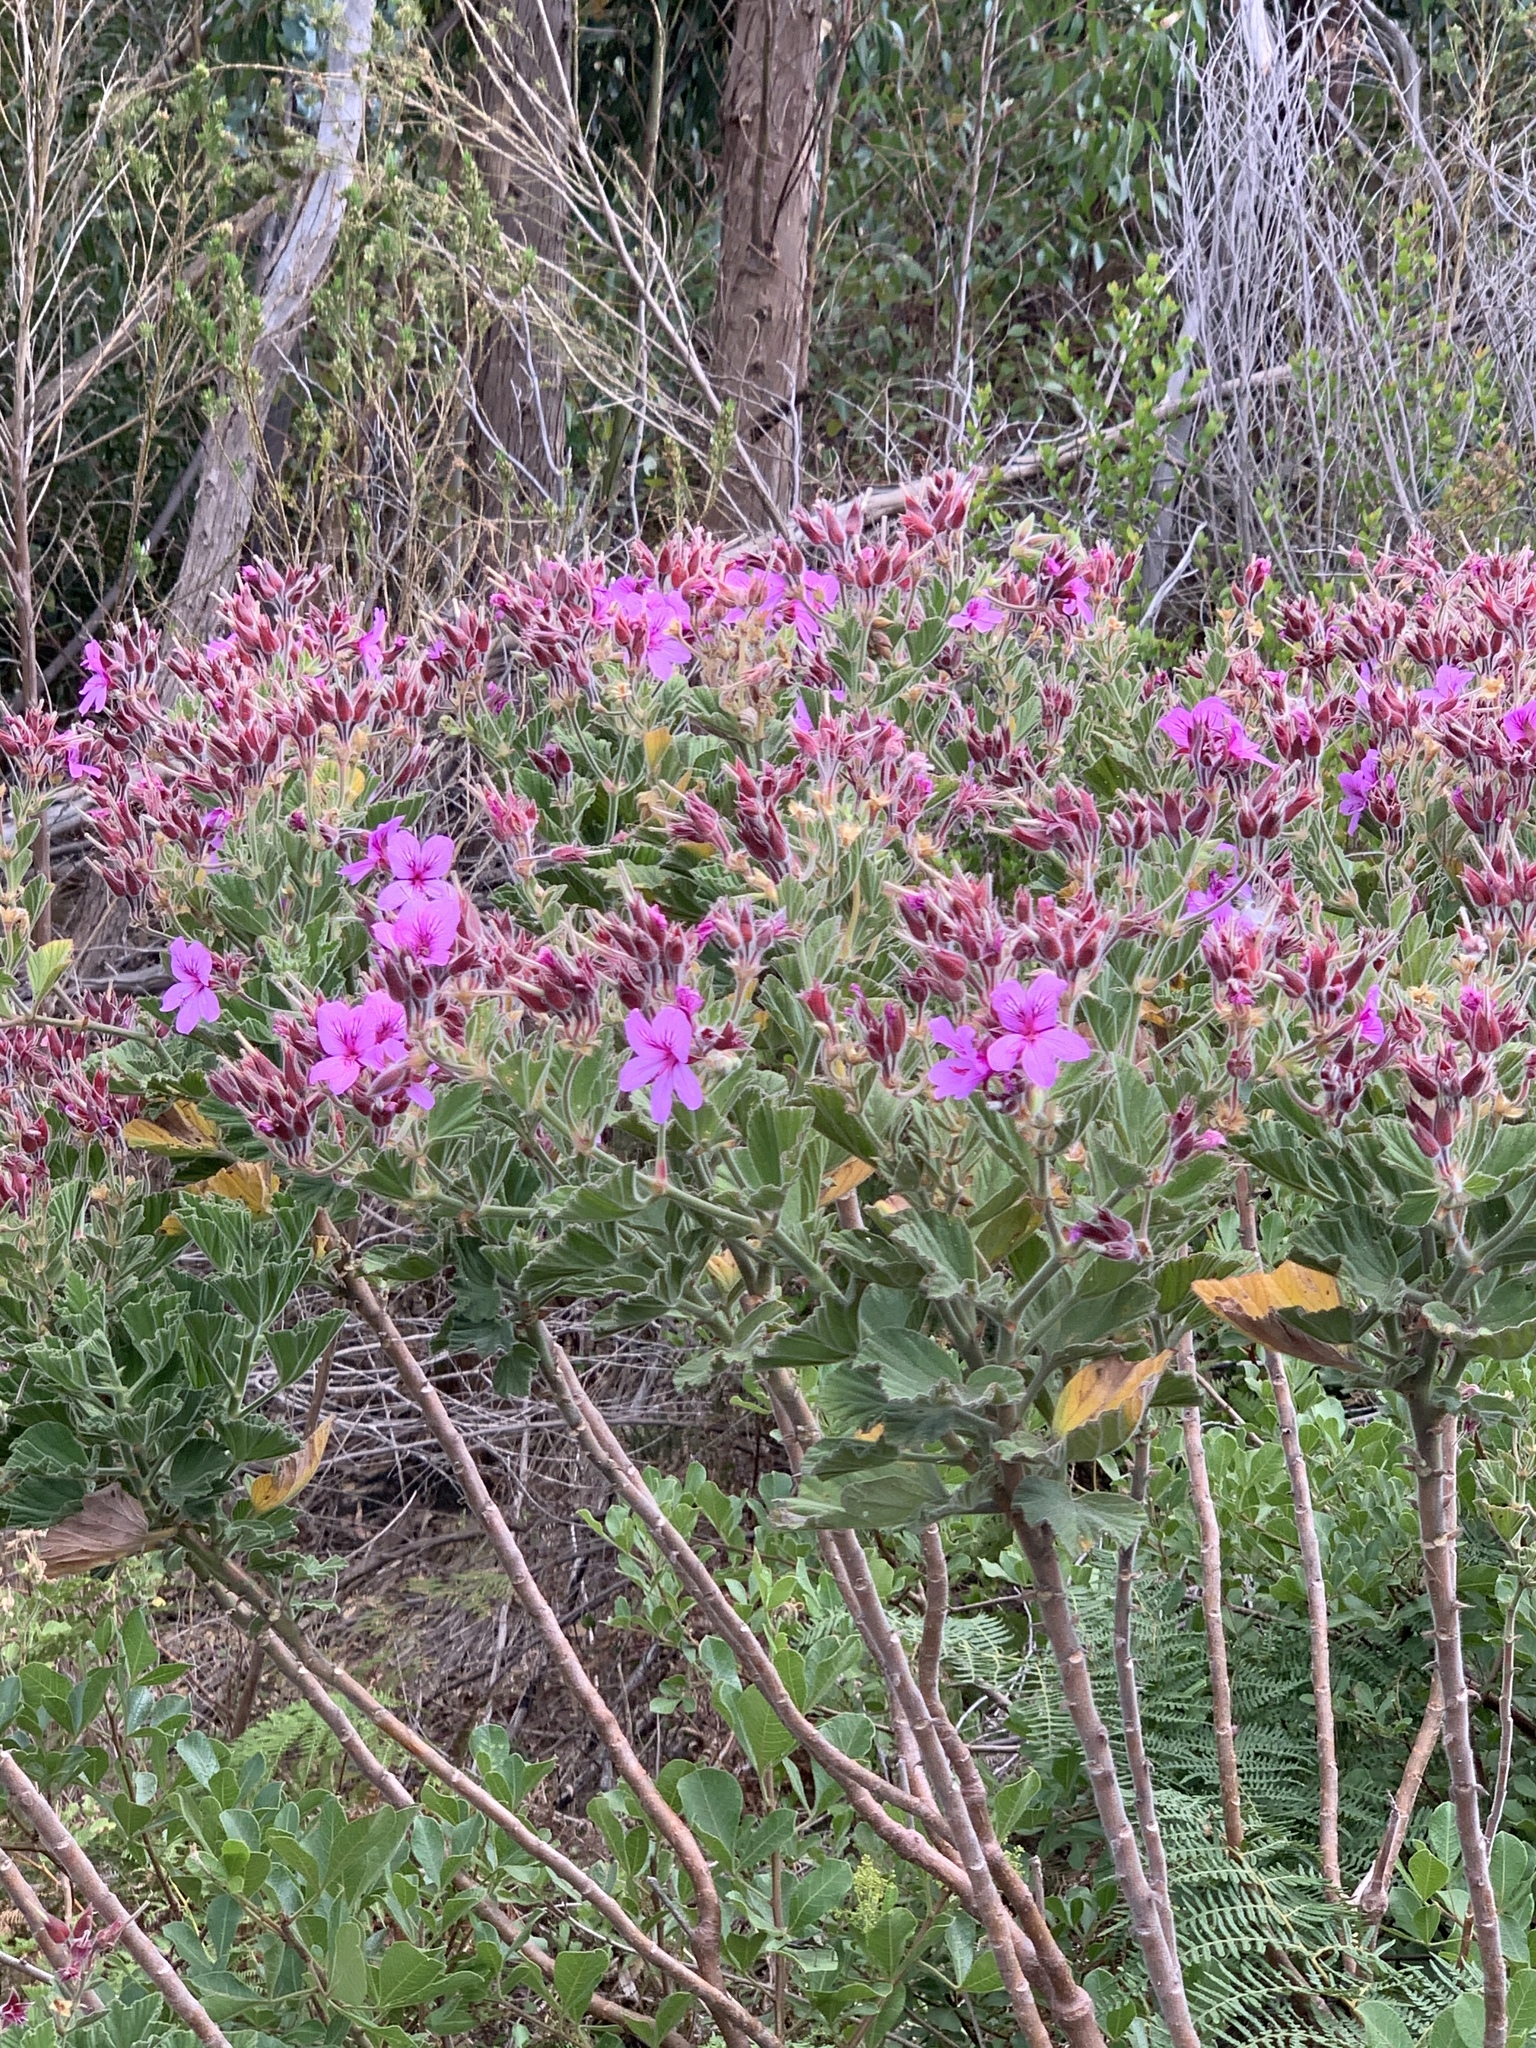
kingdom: Plantae
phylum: Tracheophyta
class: Magnoliopsida
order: Geraniales
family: Geraniaceae
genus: Pelargonium
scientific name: Pelargonium cucullatum
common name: Tree pelargonium
